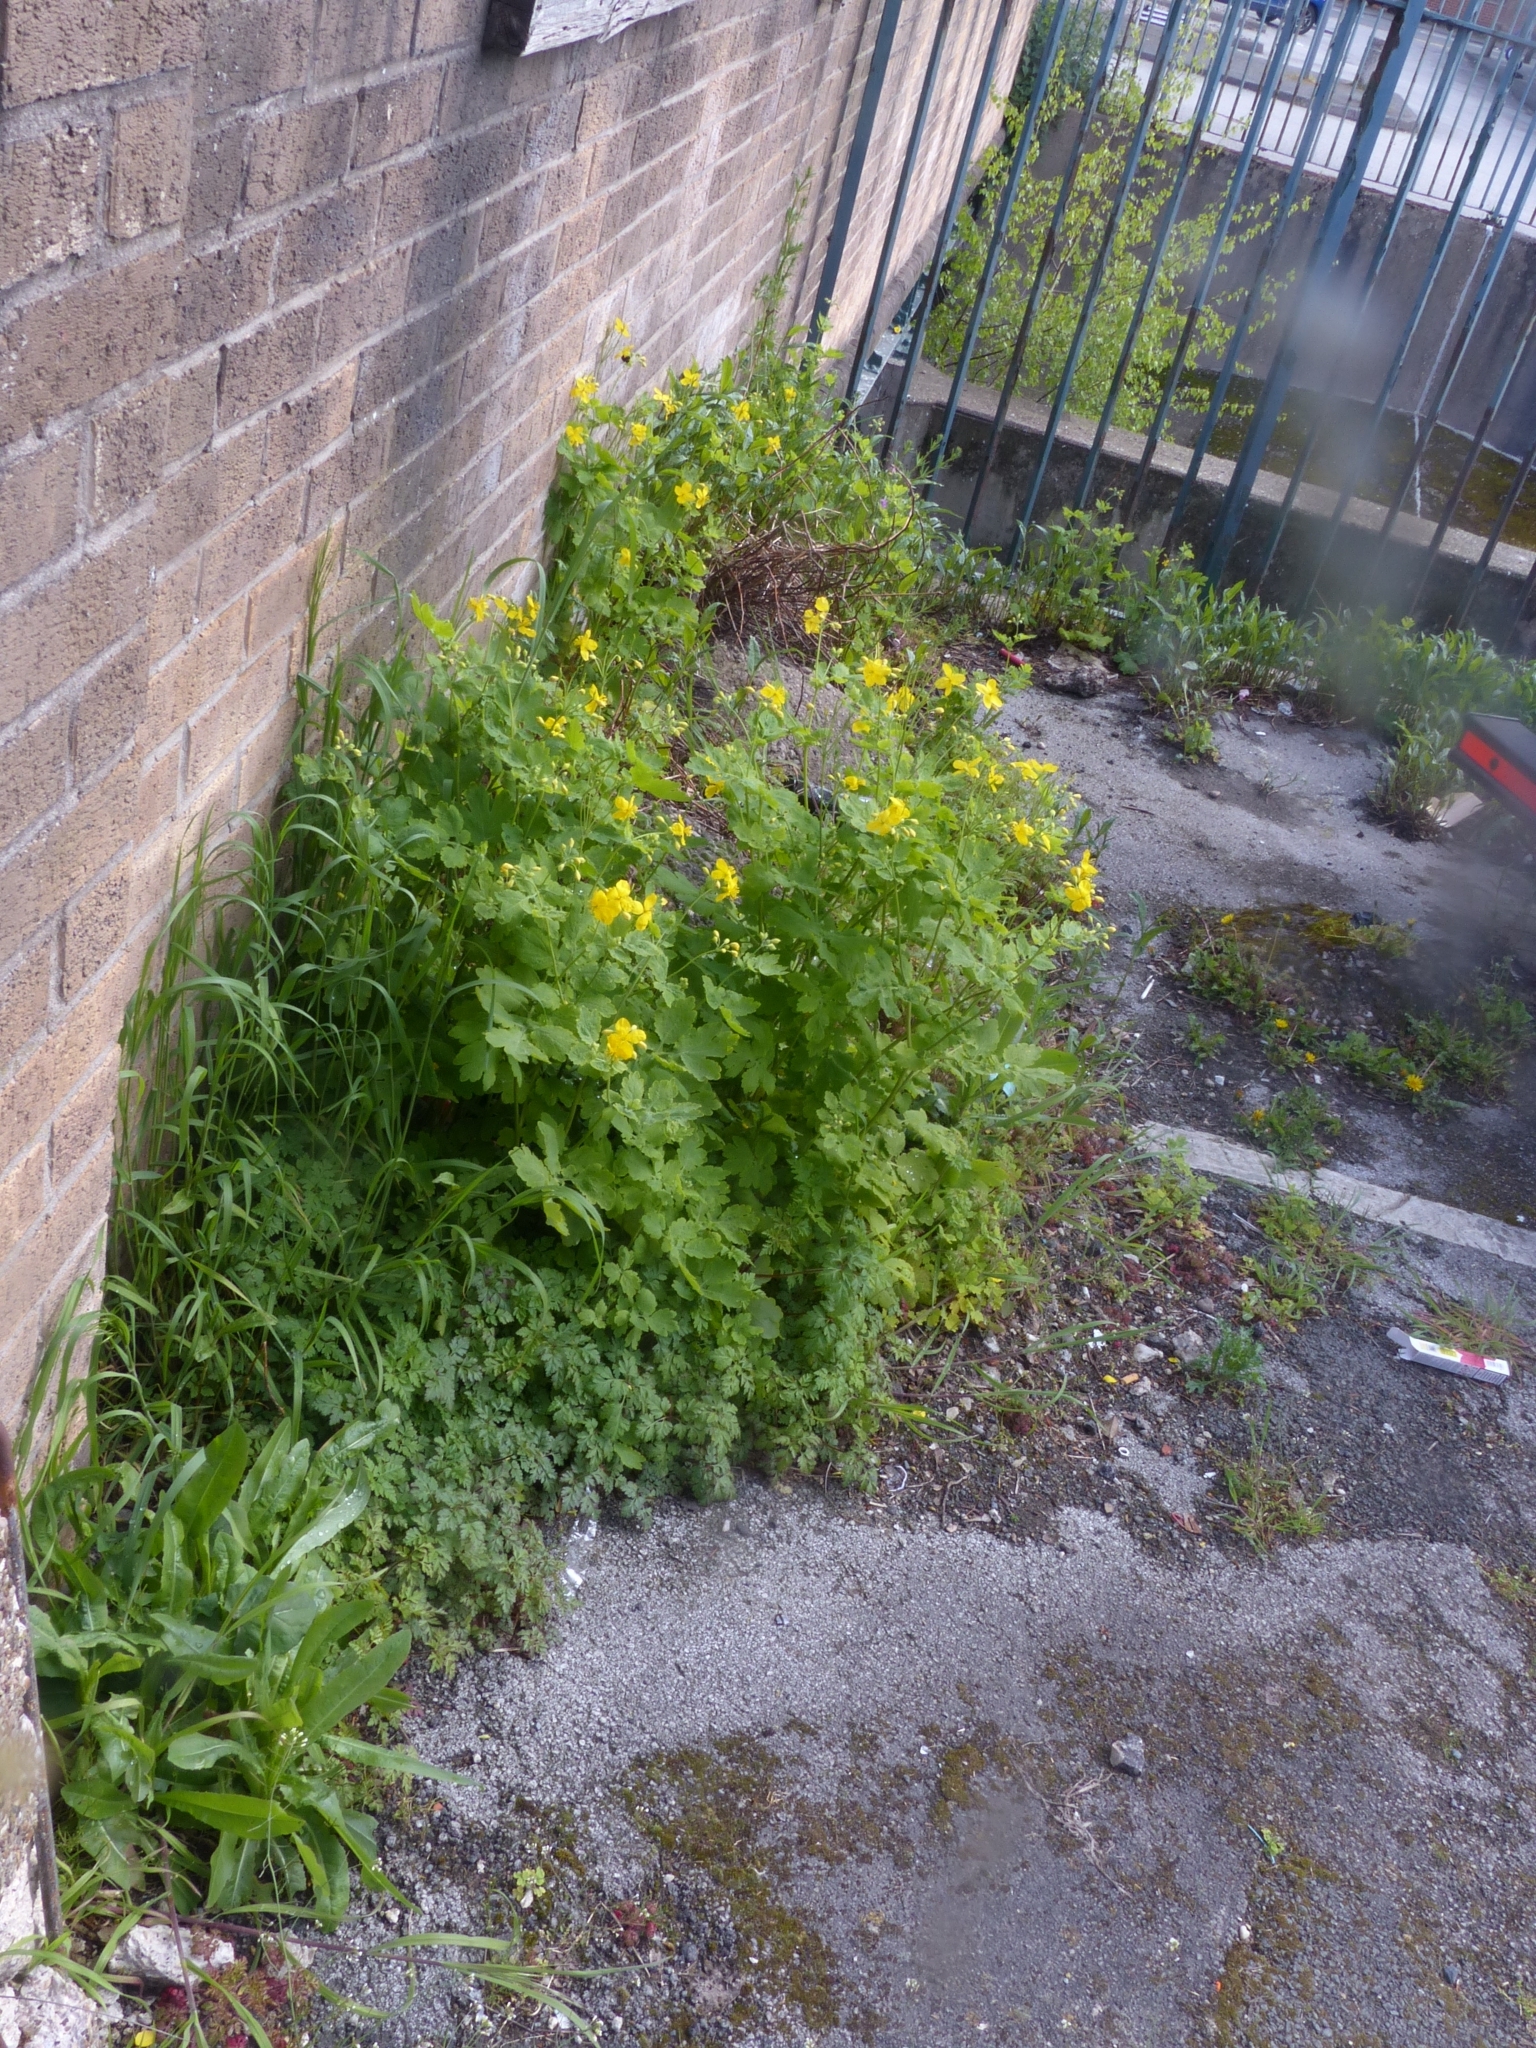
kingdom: Plantae
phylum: Tracheophyta
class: Magnoliopsida
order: Ranunculales
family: Papaveraceae
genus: Chelidonium
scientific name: Chelidonium majus
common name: Greater celandine
